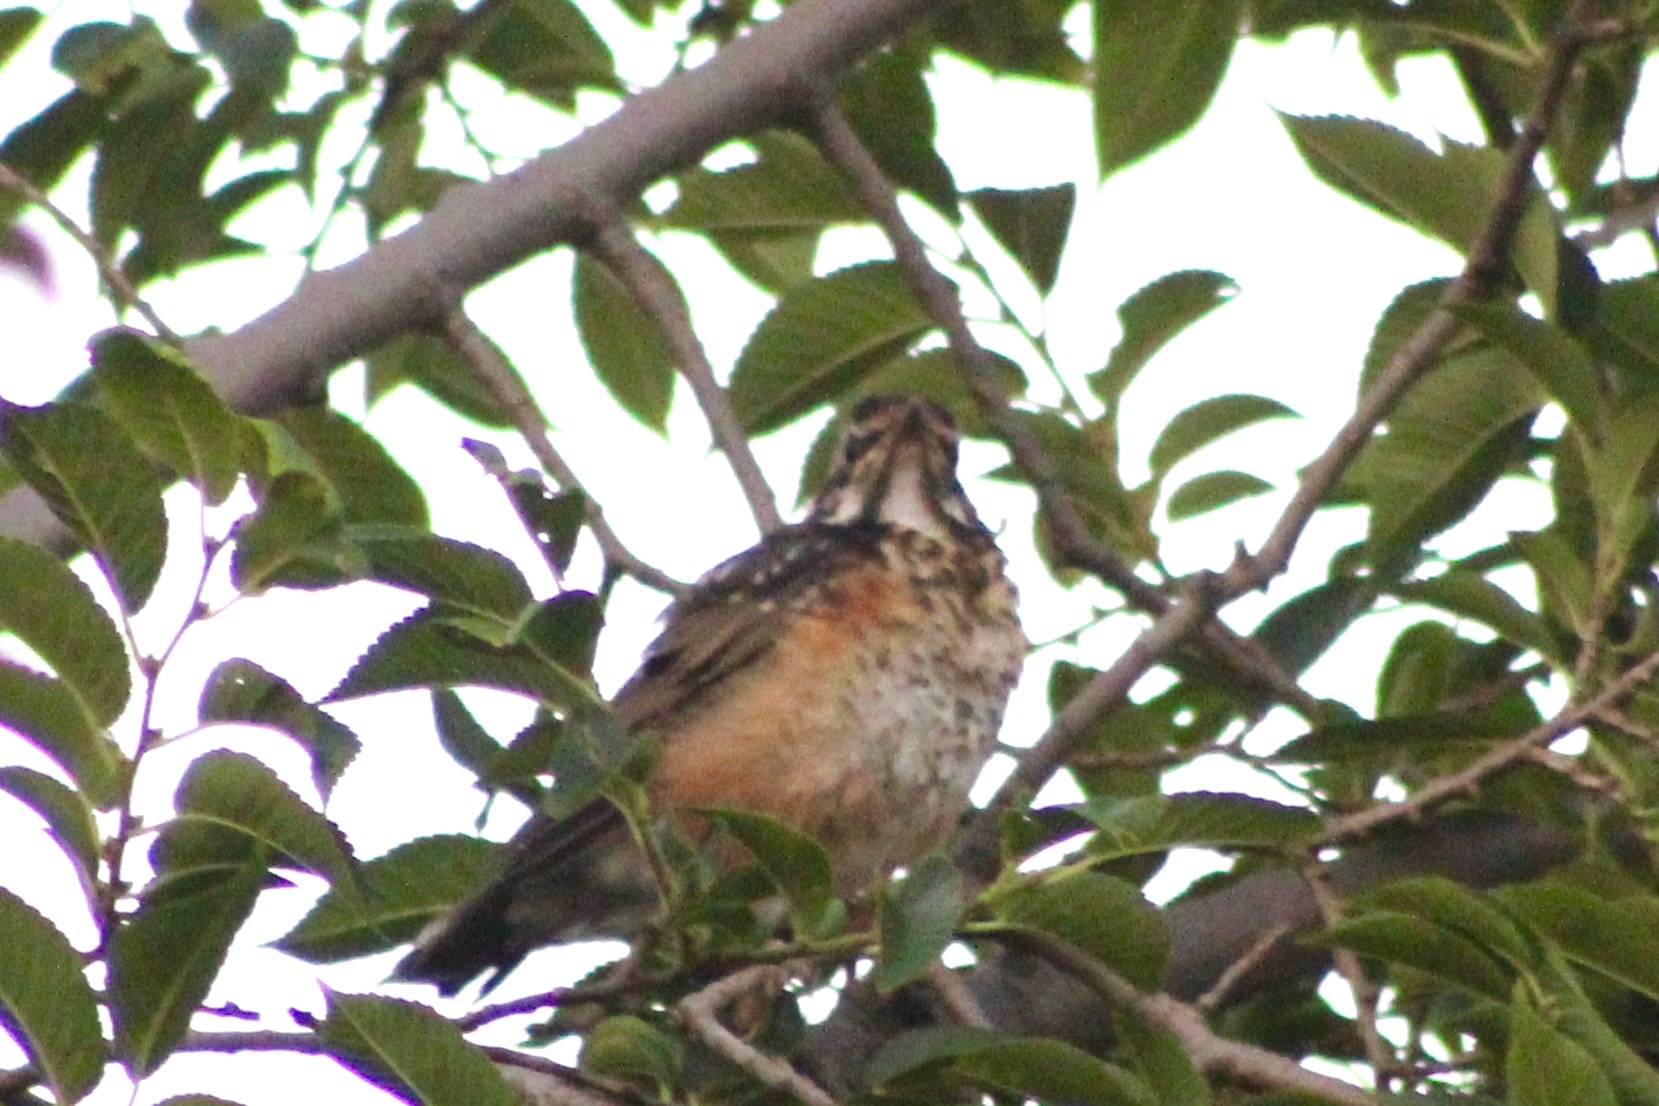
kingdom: Animalia
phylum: Chordata
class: Aves
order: Passeriformes
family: Turdidae
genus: Turdus
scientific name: Turdus migratorius
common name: American robin
